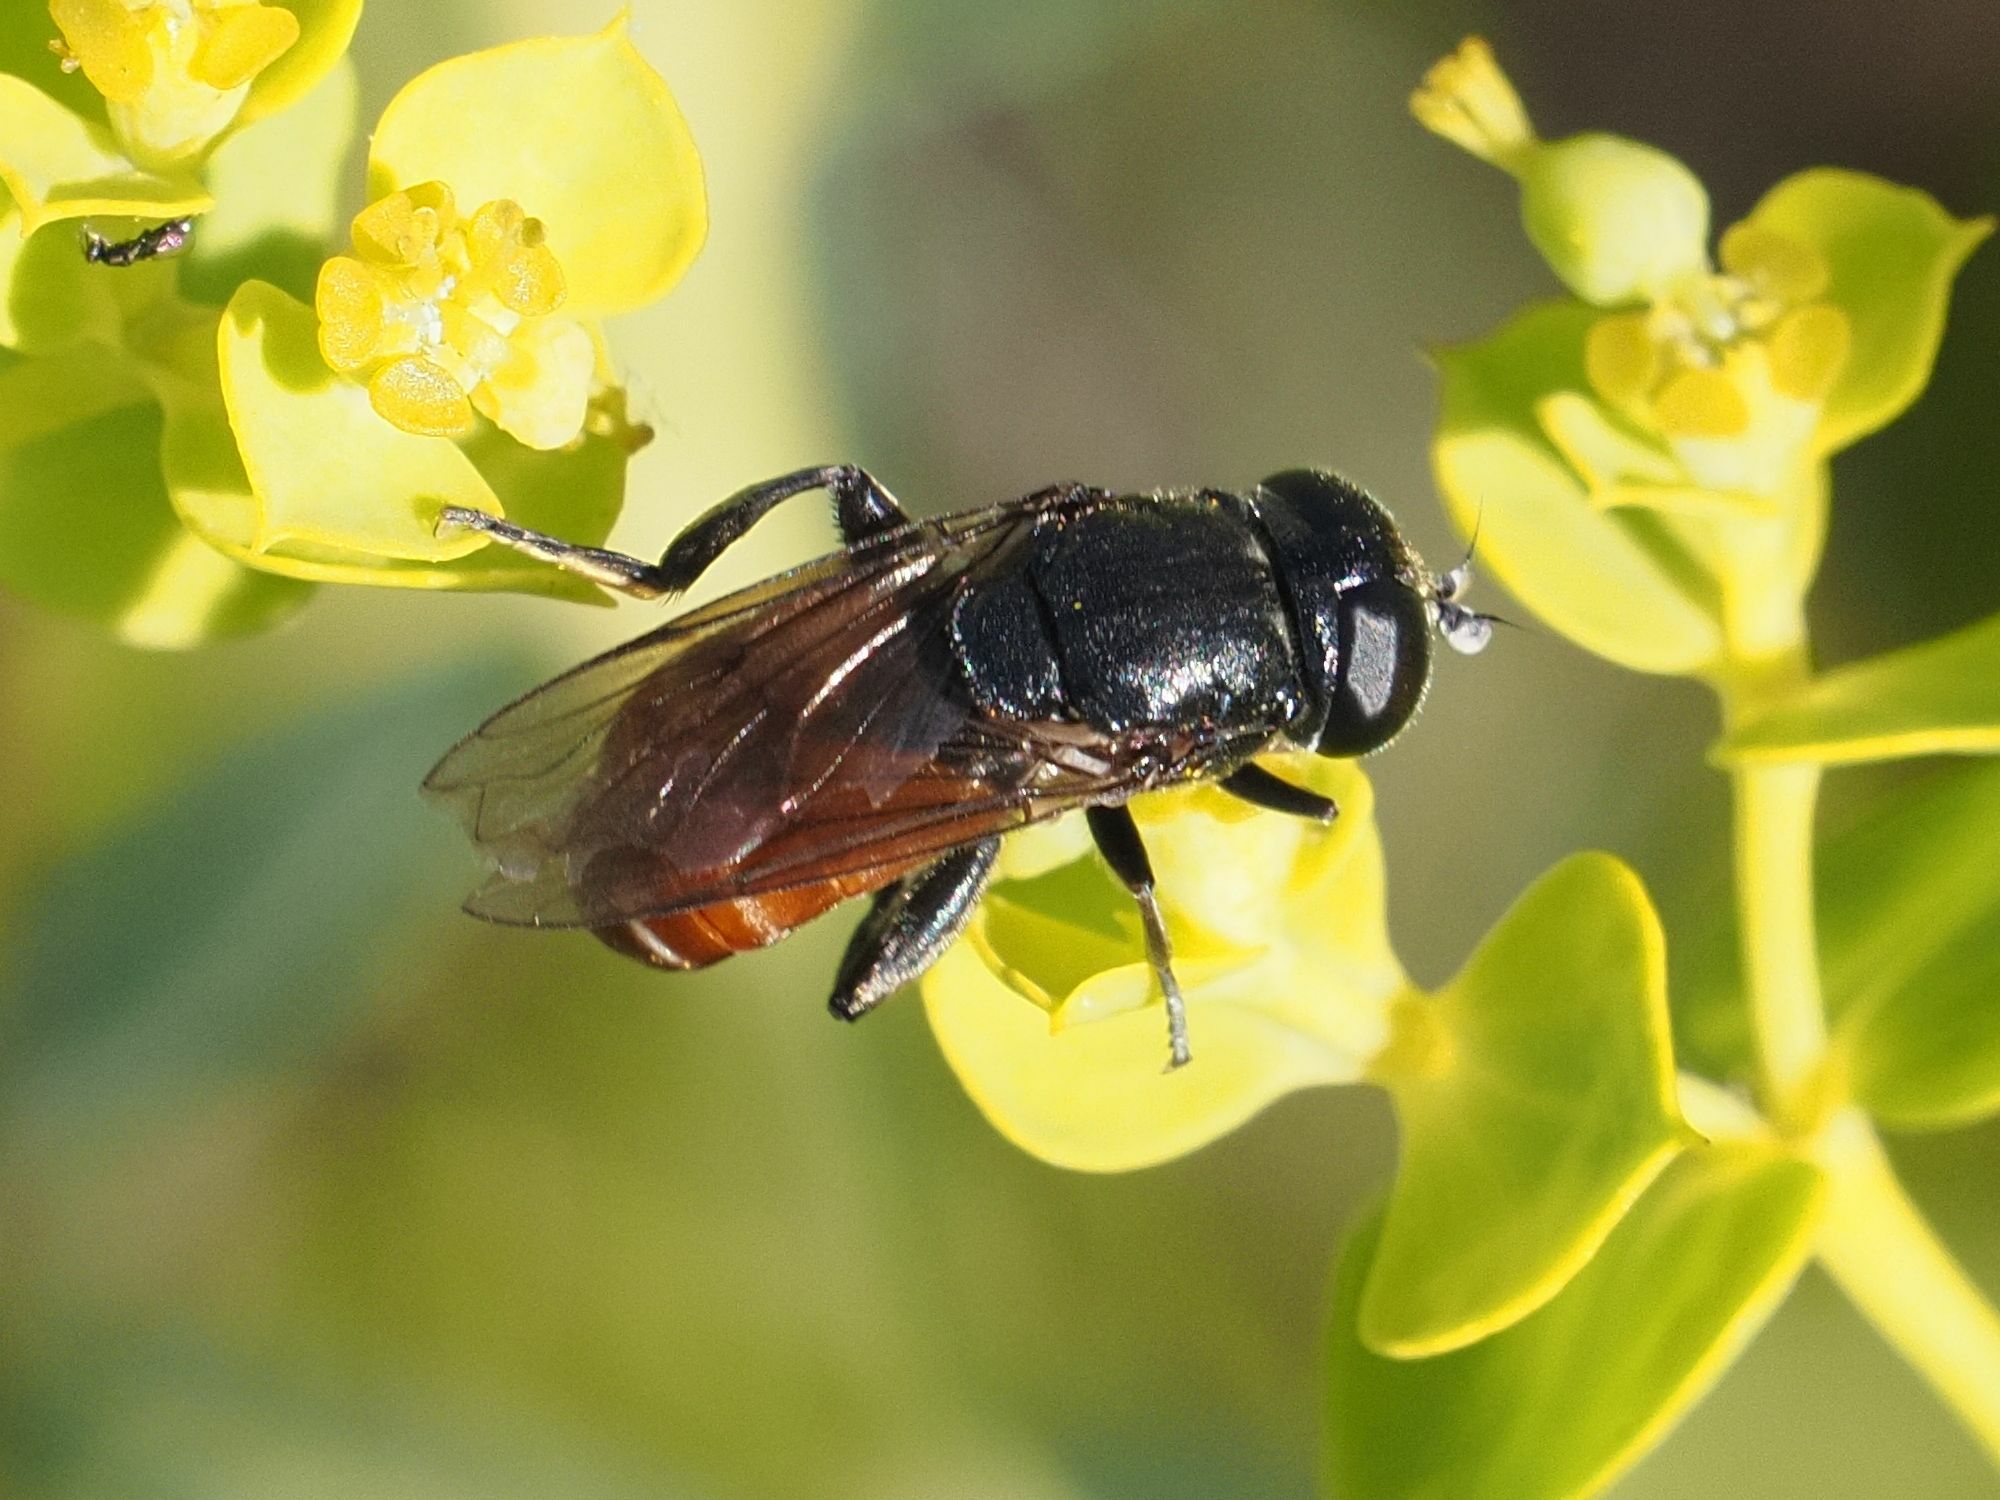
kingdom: Animalia
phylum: Arthropoda
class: Insecta
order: Diptera
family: Syrphidae
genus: Eumerus
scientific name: Eumerus tricolor
